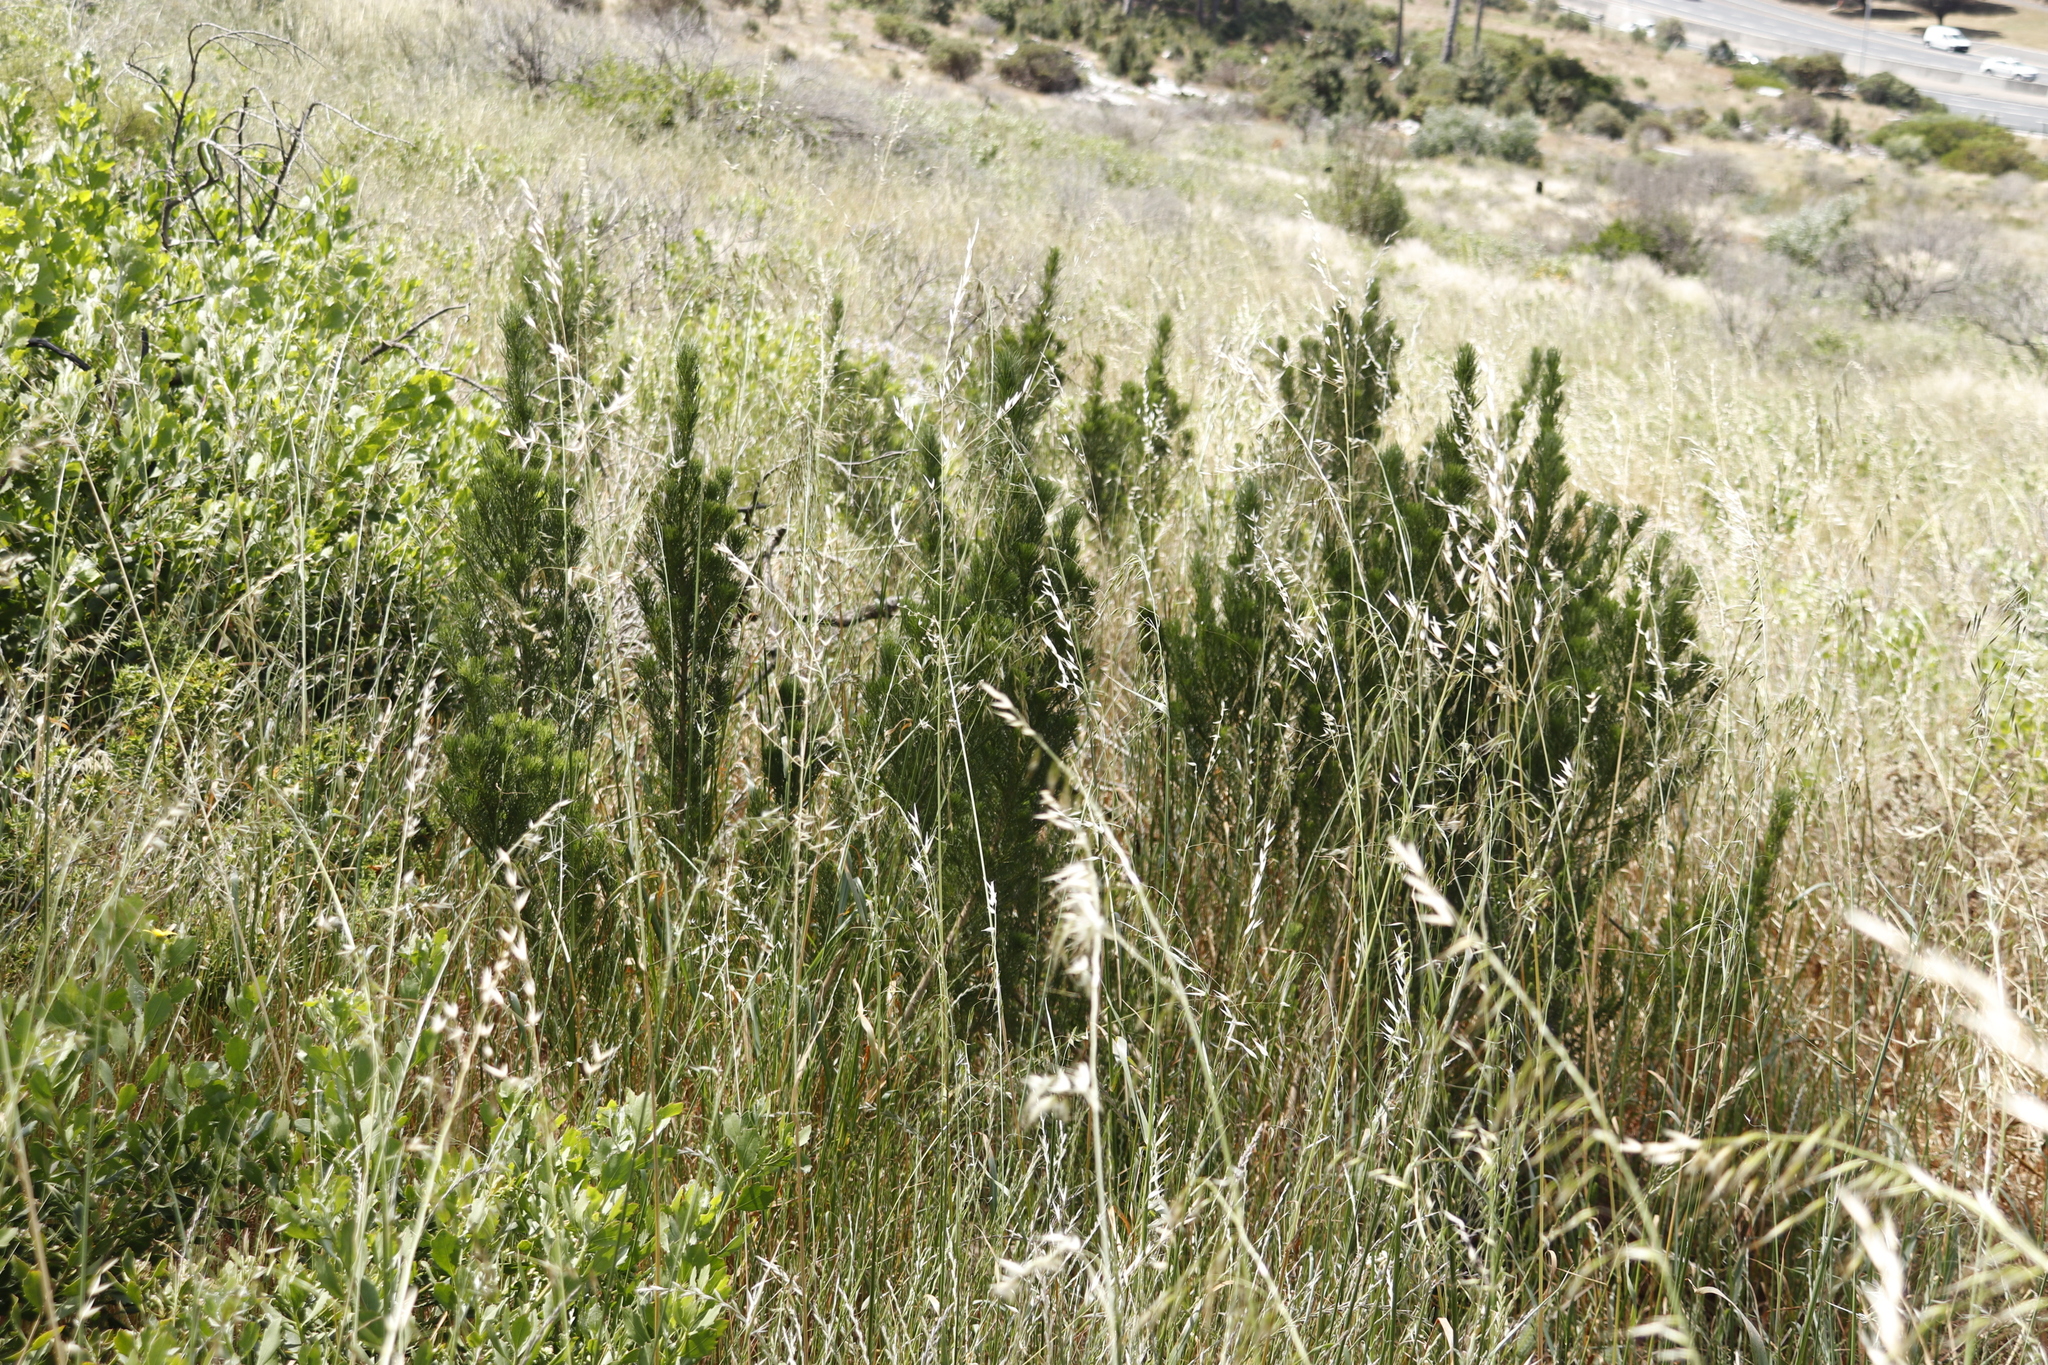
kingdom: Plantae
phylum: Tracheophyta
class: Magnoliopsida
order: Fabales
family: Fabaceae
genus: Psoralea
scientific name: Psoralea pinnata
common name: African scurfpea
